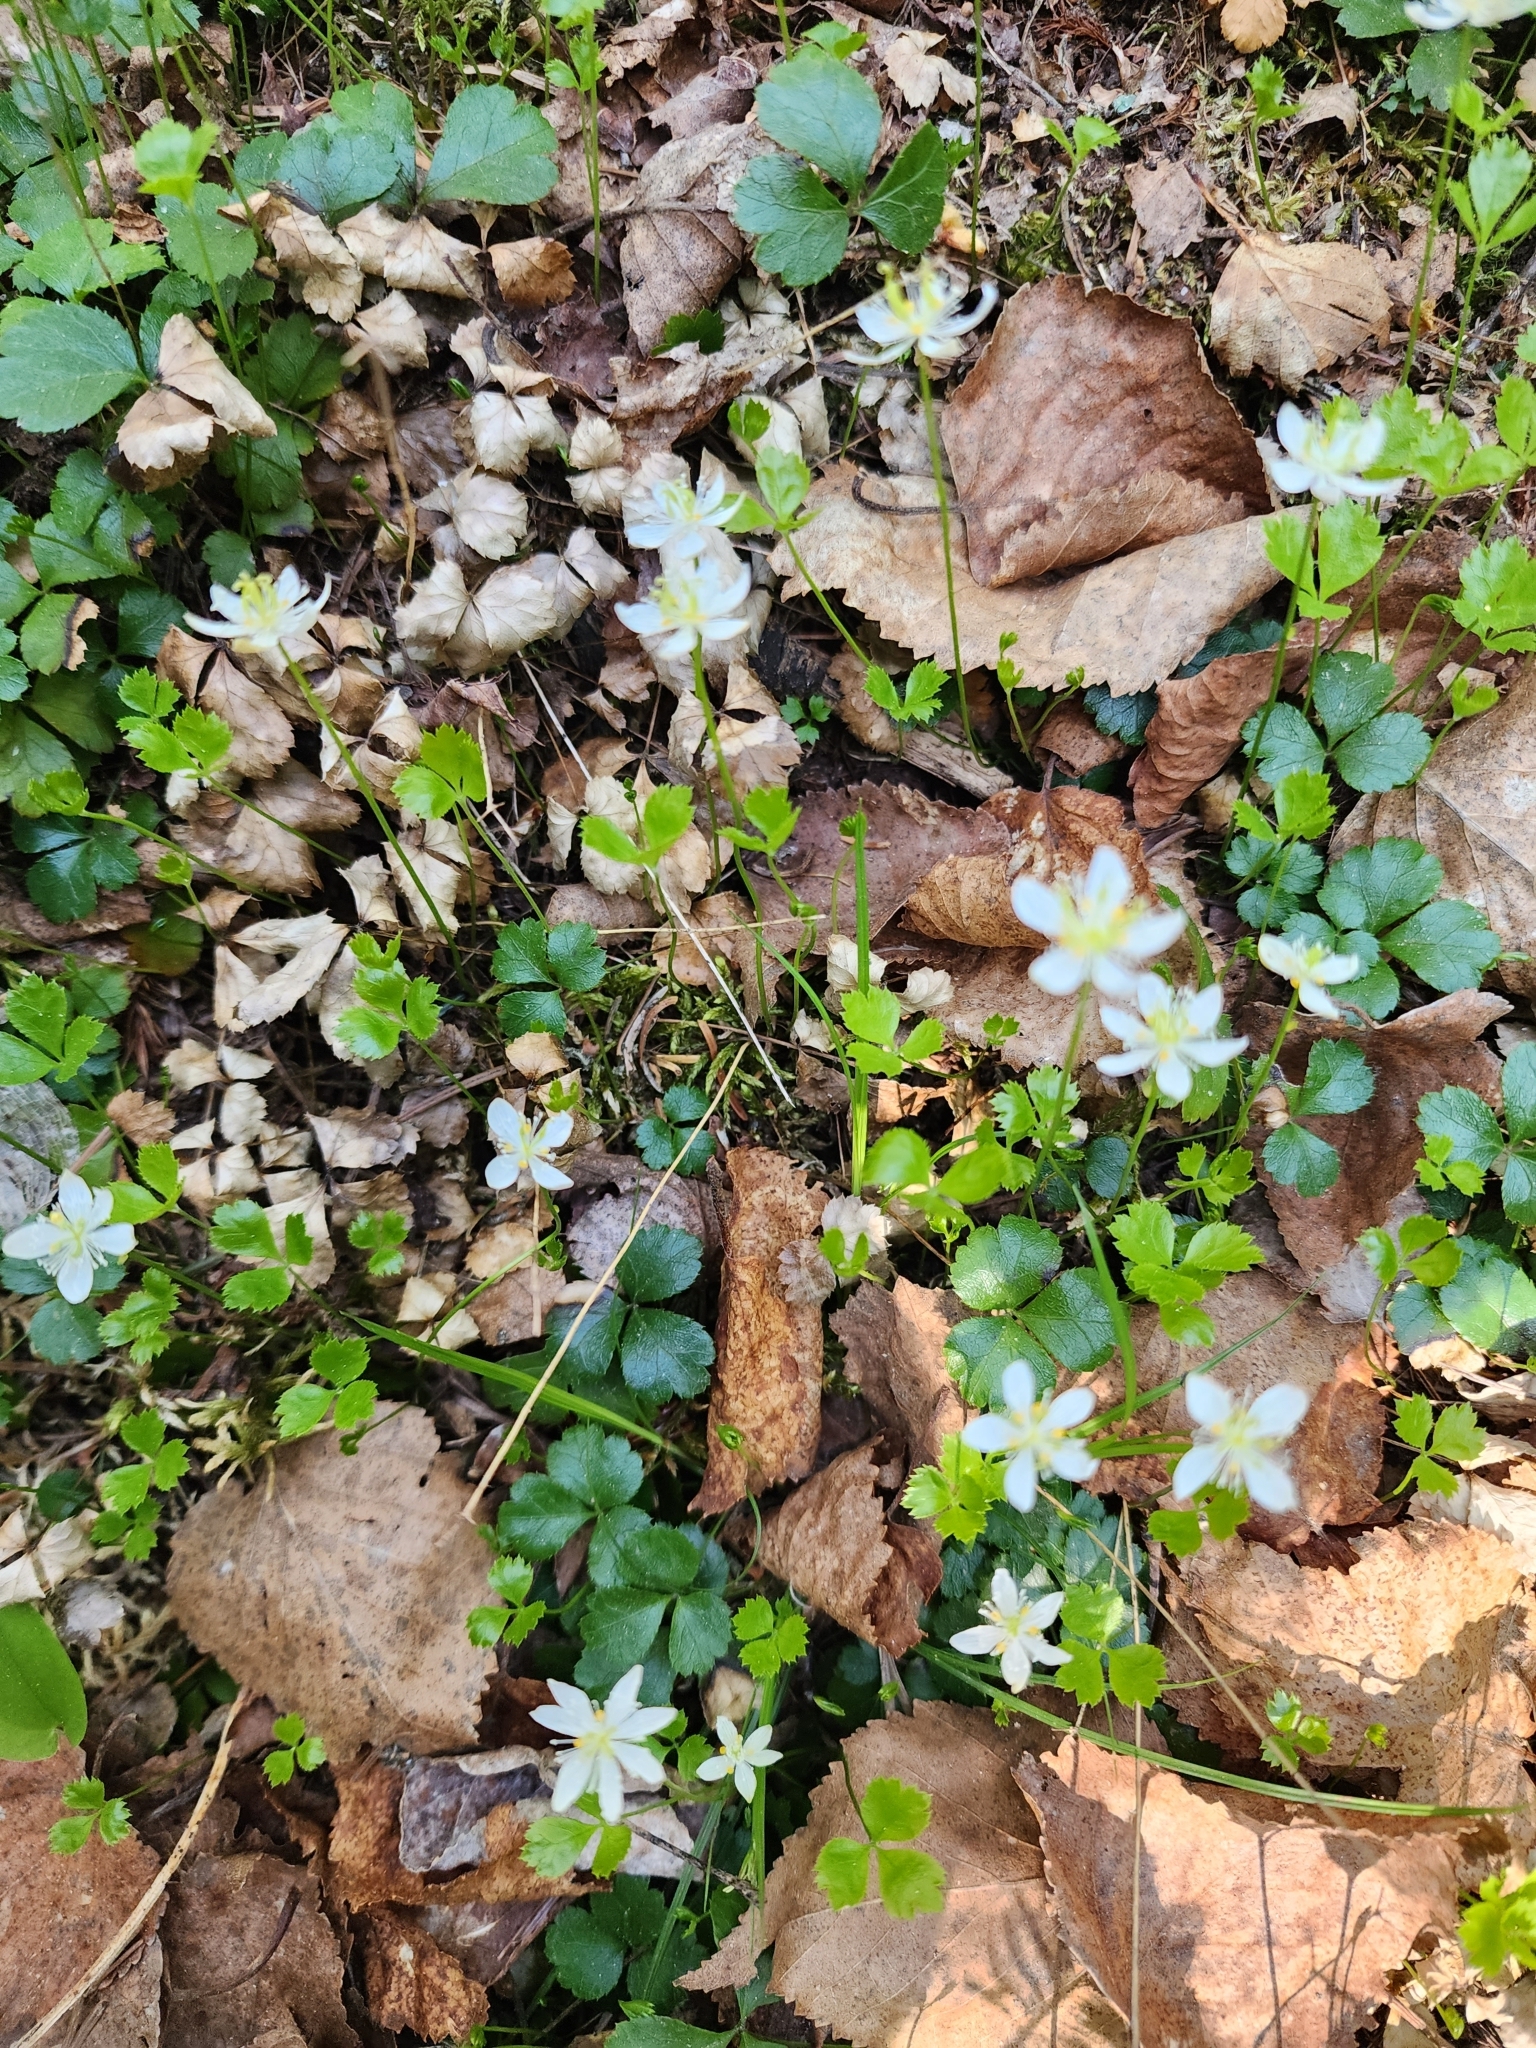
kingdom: Plantae
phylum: Tracheophyta
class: Magnoliopsida
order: Ranunculales
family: Ranunculaceae
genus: Coptis
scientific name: Coptis trifolia
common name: Canker-root
